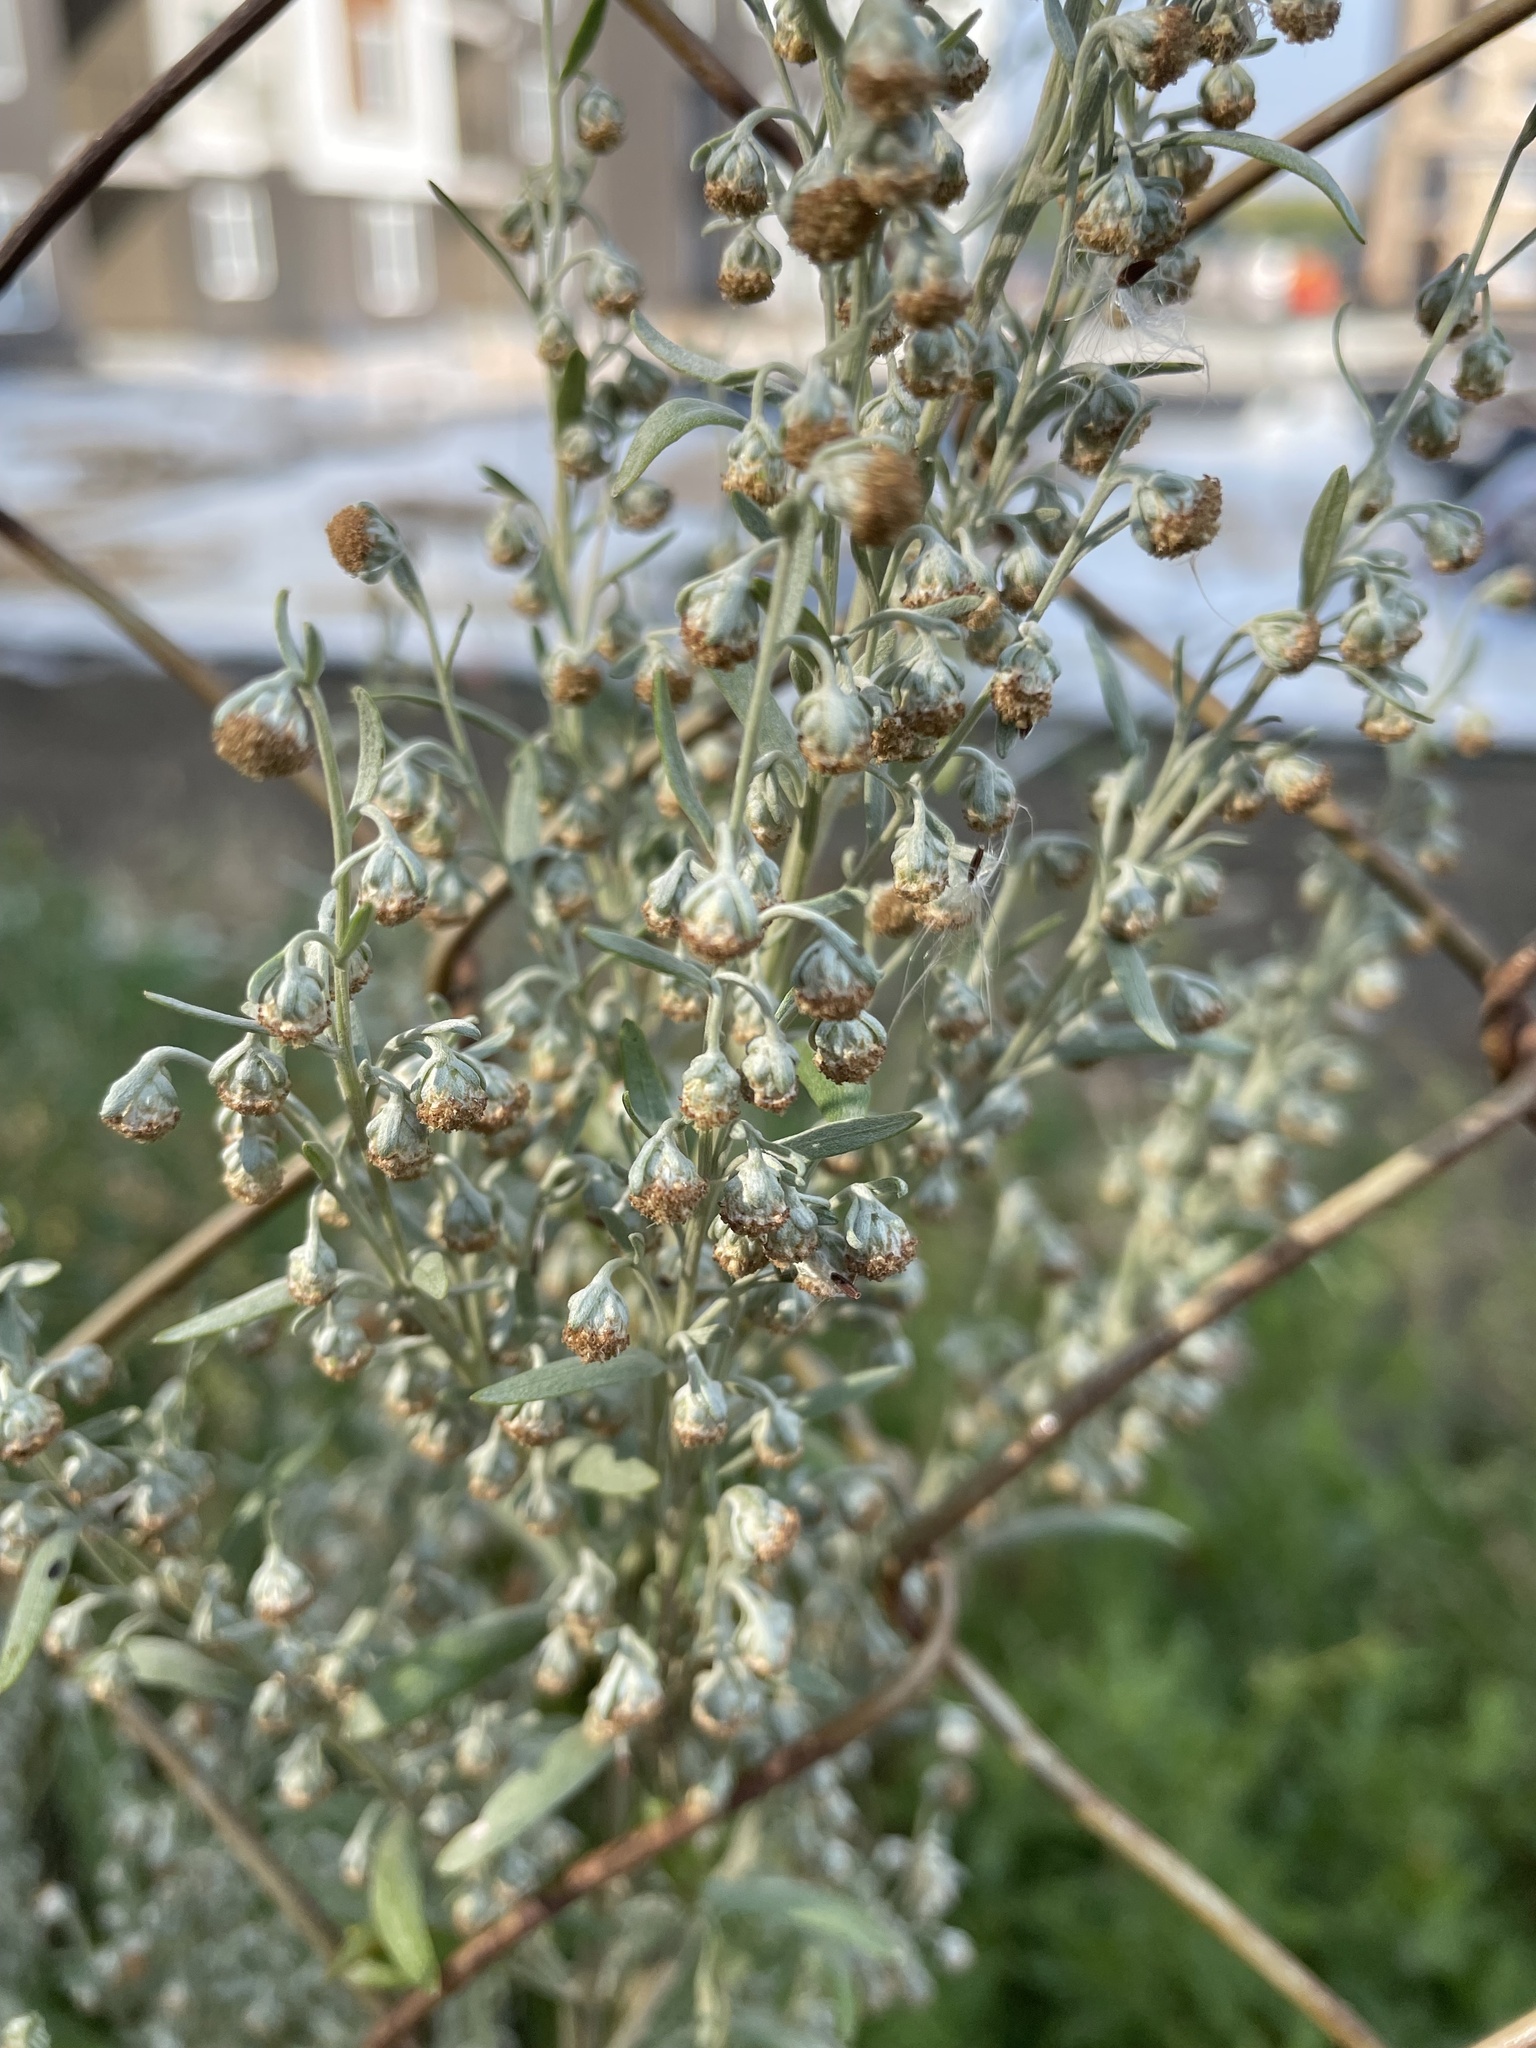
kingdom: Plantae
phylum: Tracheophyta
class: Magnoliopsida
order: Asterales
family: Asteraceae
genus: Artemisia
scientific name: Artemisia absinthium
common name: Wormwood
